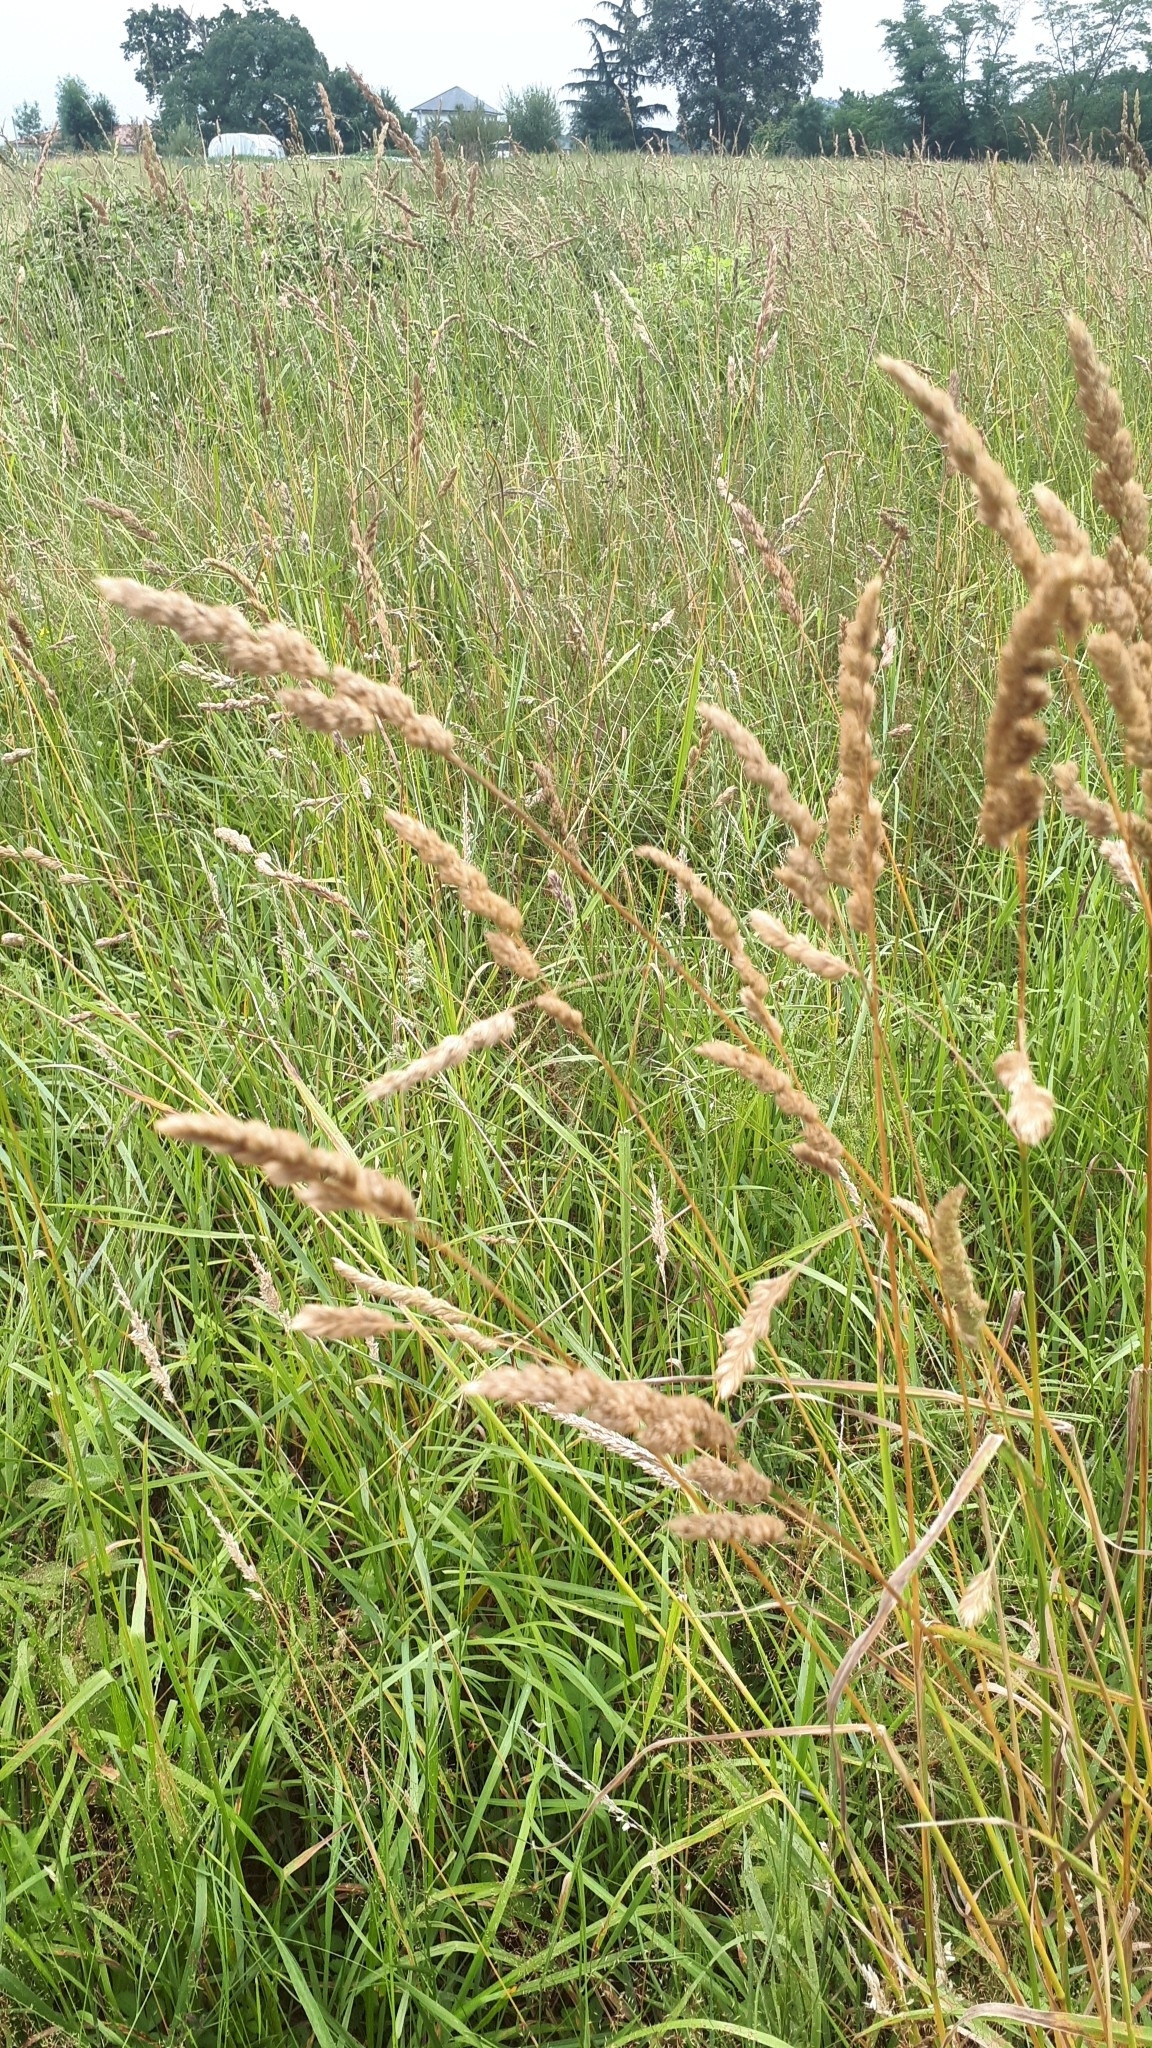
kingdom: Plantae
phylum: Tracheophyta
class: Liliopsida
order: Poales
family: Poaceae
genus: Dactylis
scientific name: Dactylis glomerata
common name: Orchardgrass
